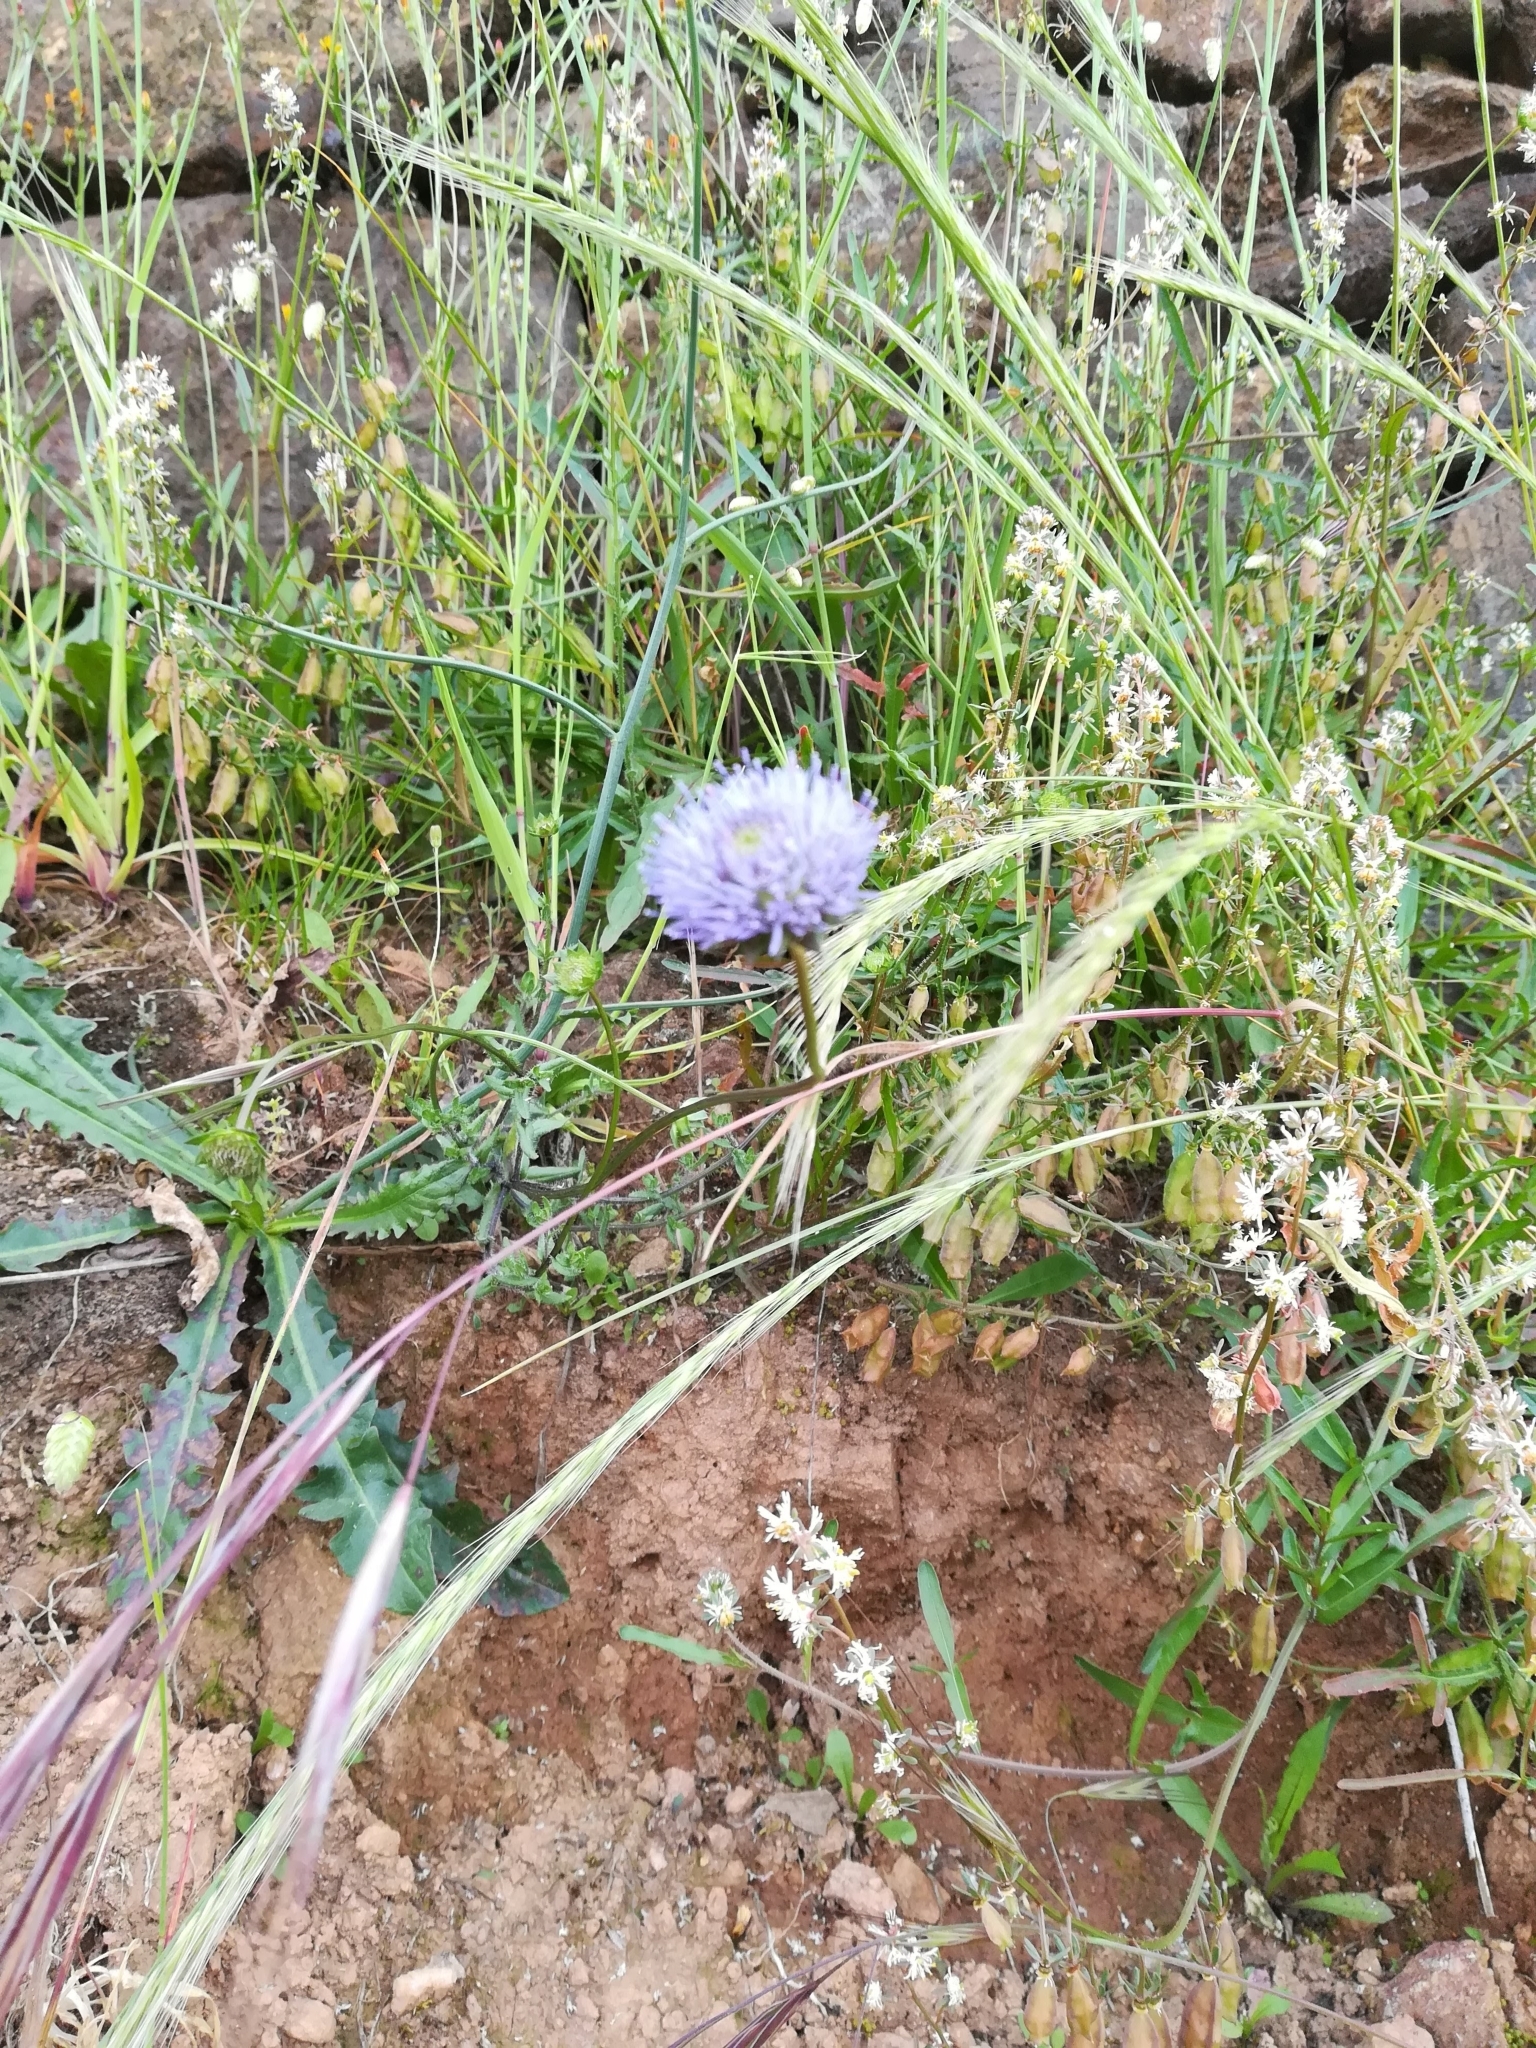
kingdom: Plantae
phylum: Tracheophyta
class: Magnoliopsida
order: Asterales
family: Campanulaceae
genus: Jasione
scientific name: Jasione montana
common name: Sheep's-bit
